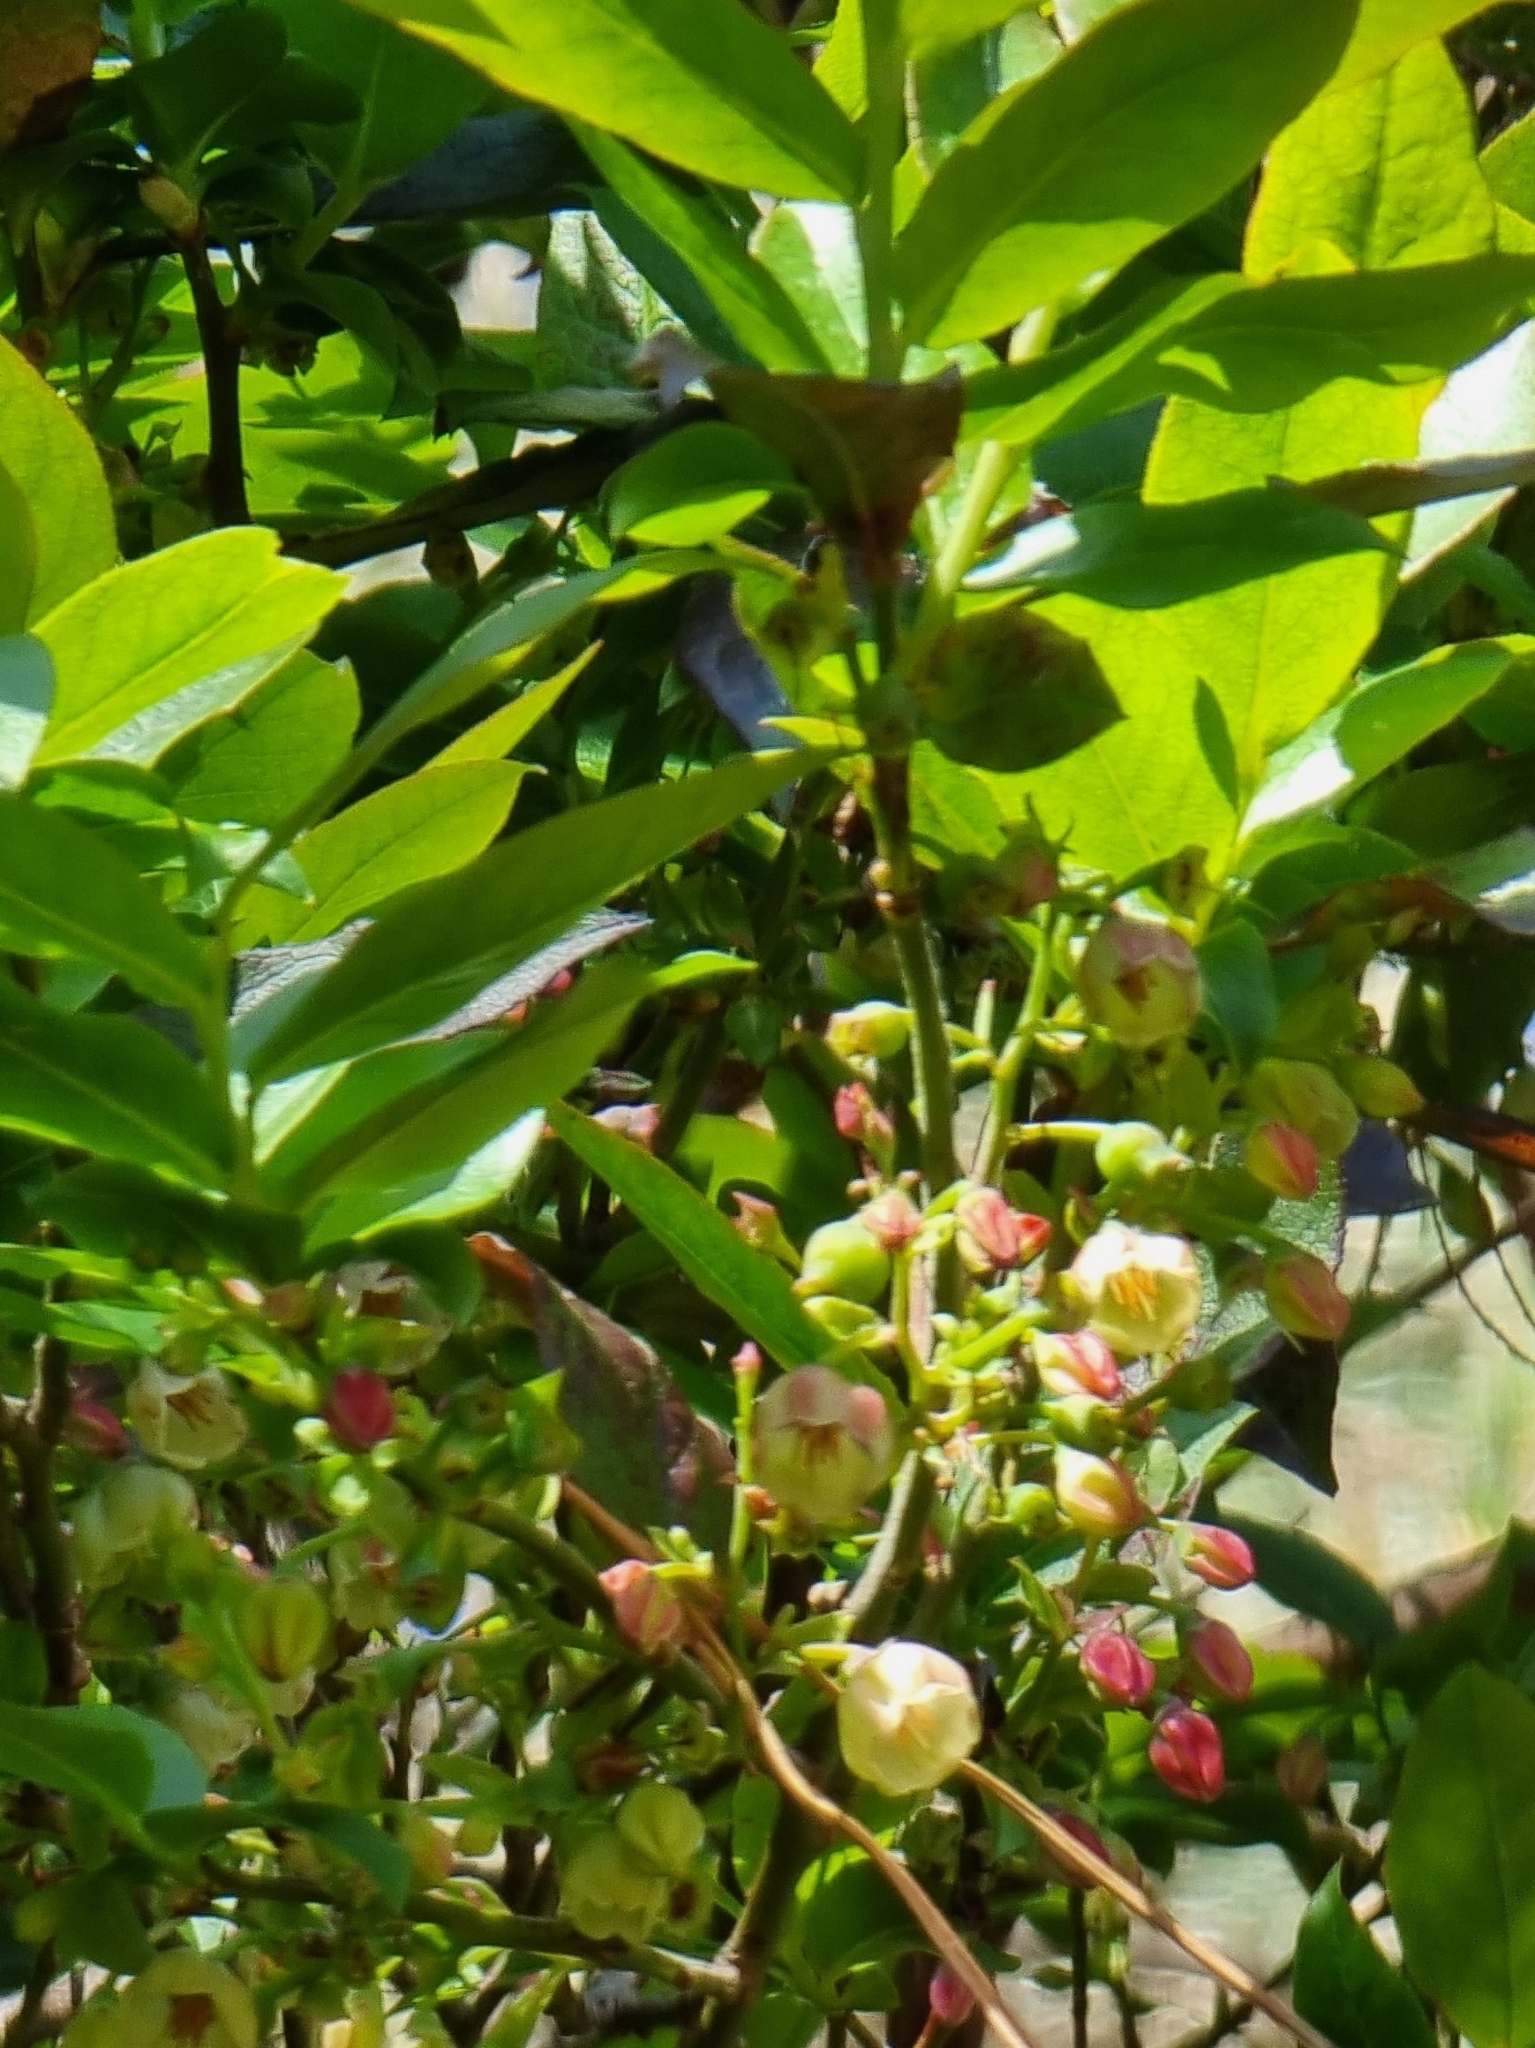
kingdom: Plantae
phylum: Tracheophyta
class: Magnoliopsida
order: Ericales
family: Ericaceae
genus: Vaccinium
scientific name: Vaccinium padifolium
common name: Madeiran blueberry
